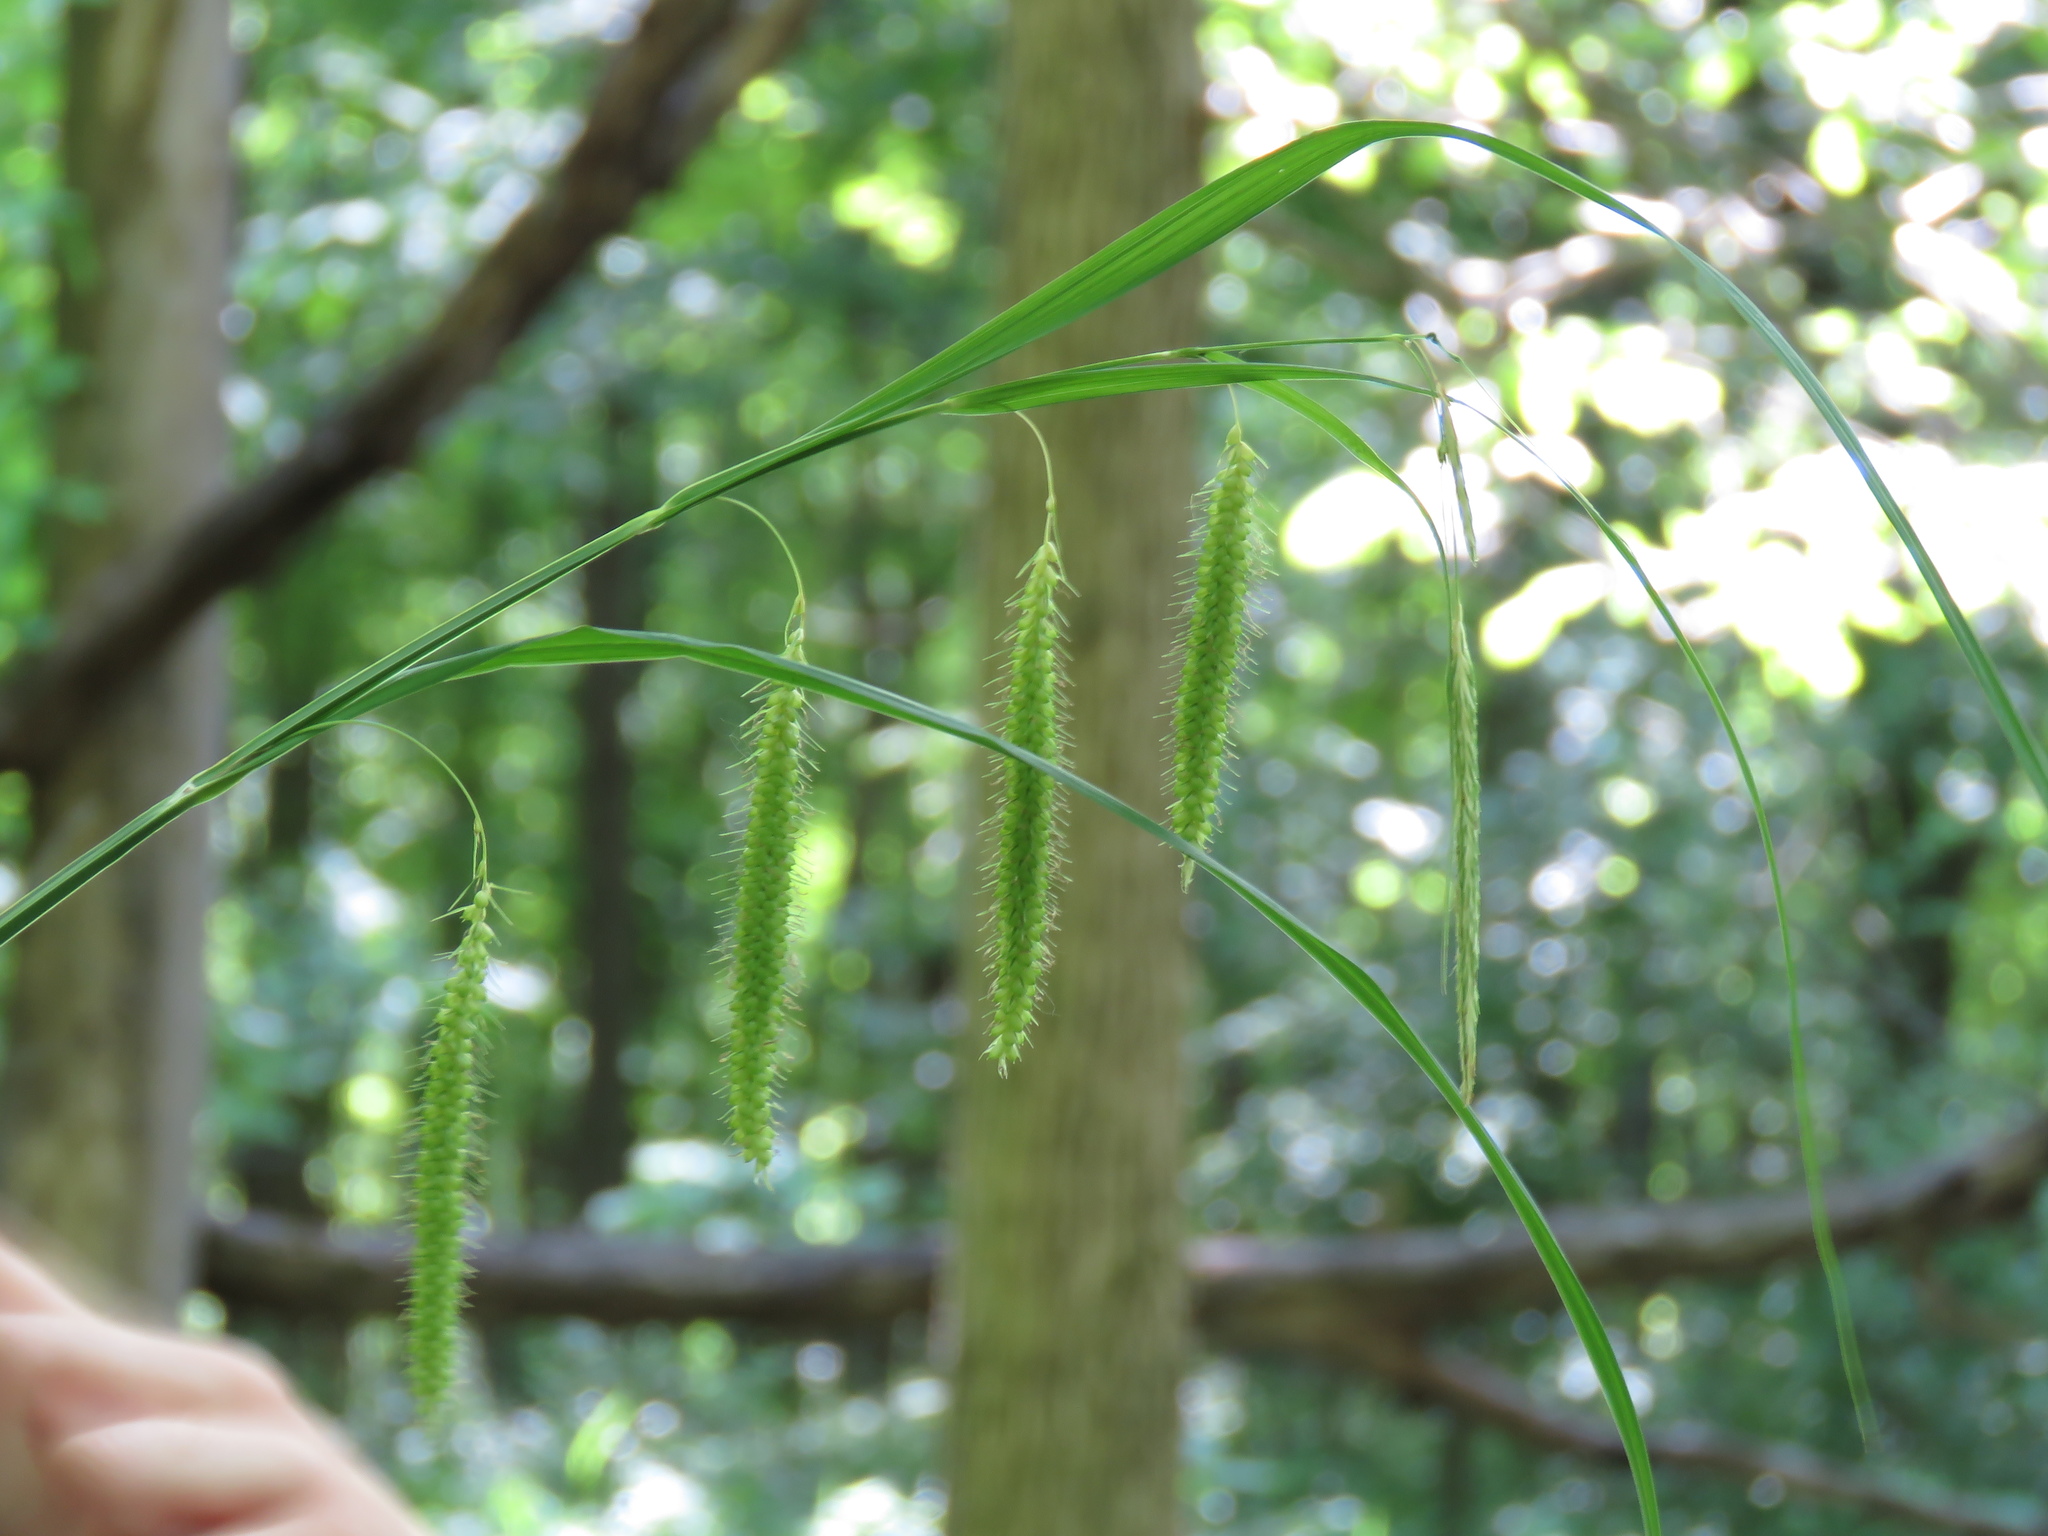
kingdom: Plantae
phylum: Tracheophyta
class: Liliopsida
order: Poales
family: Cyperaceae
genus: Carex
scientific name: Carex crinita
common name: Fringed sedge
